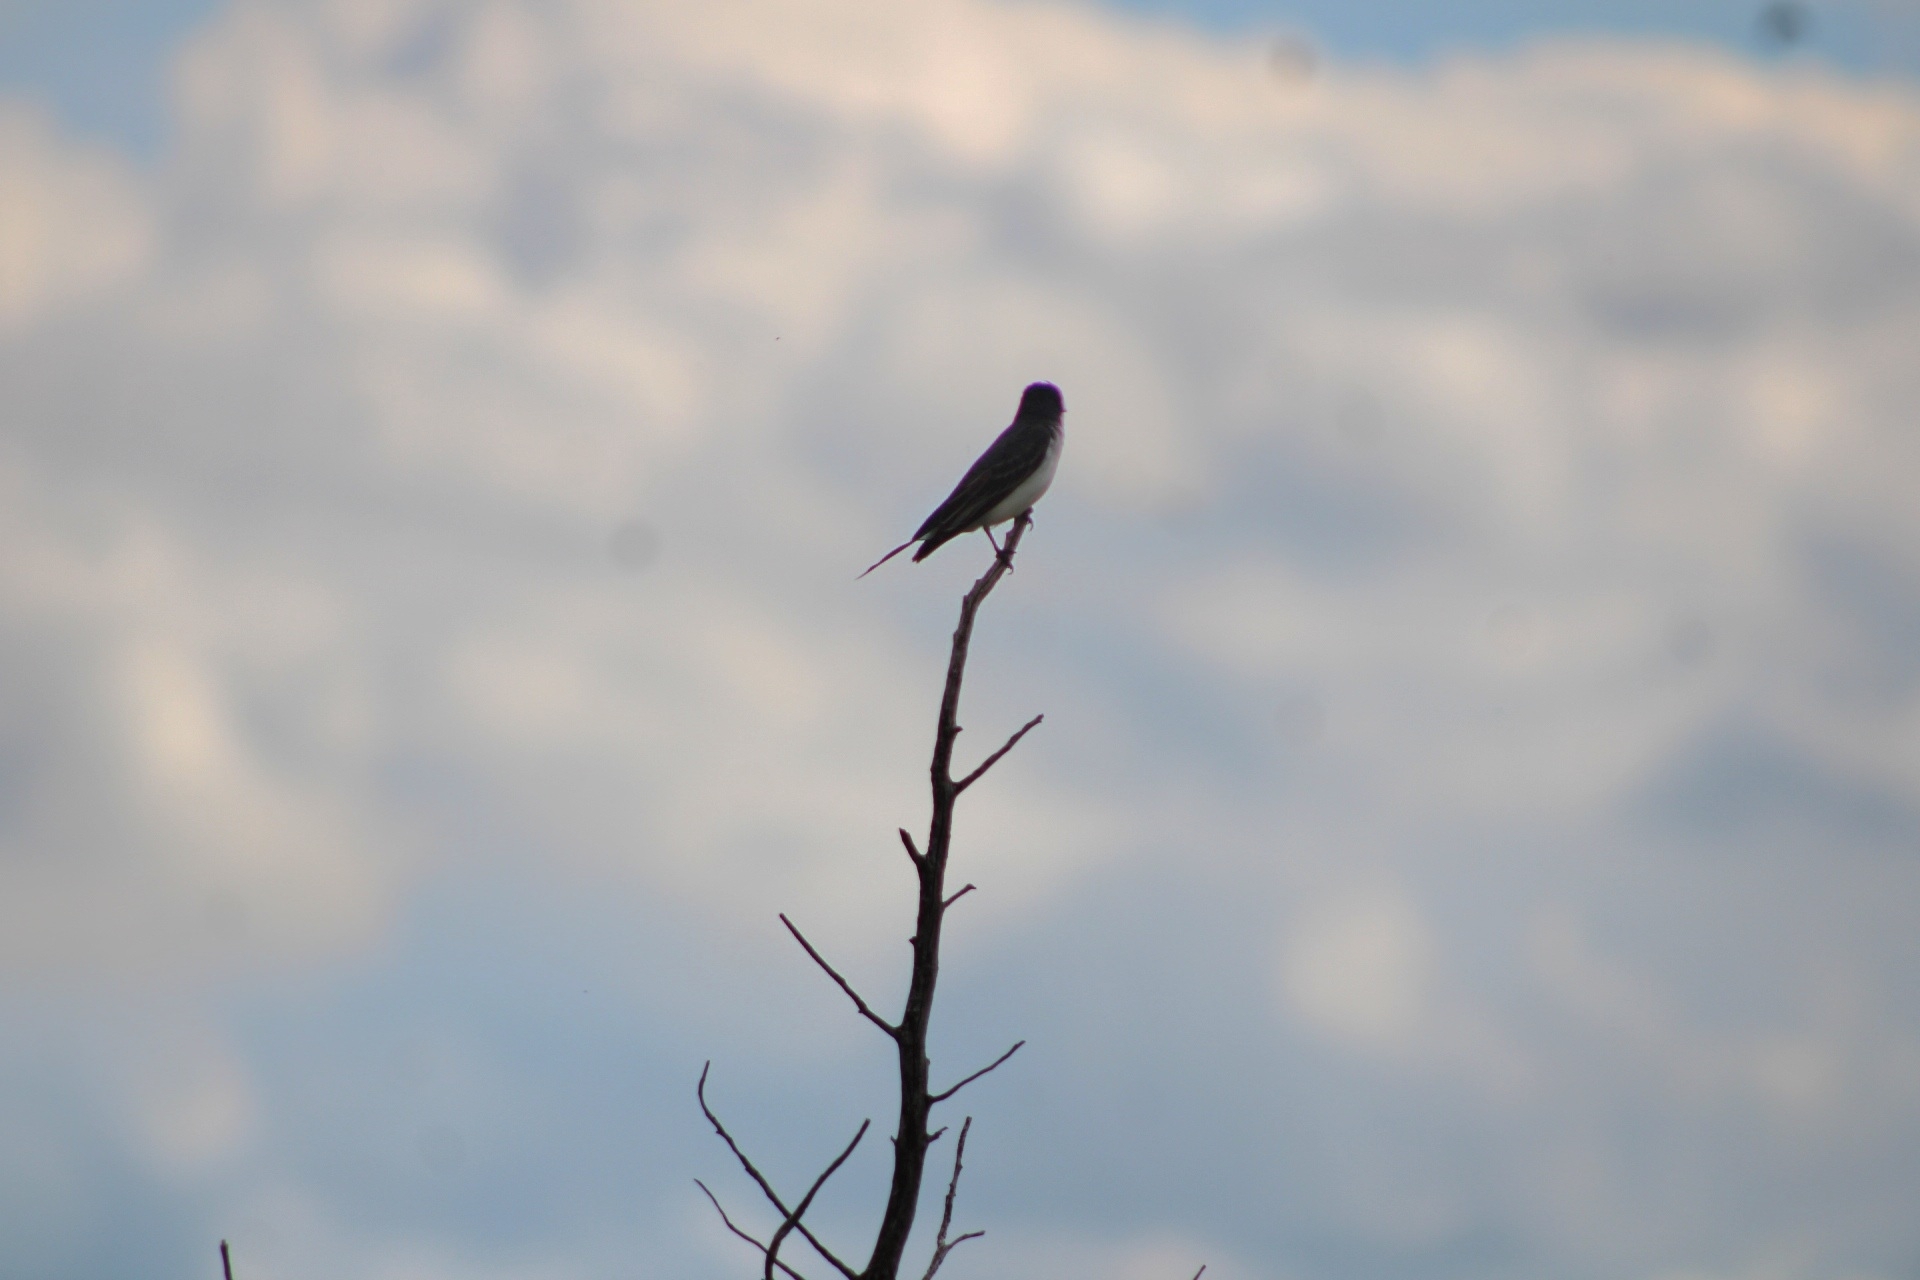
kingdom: Animalia
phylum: Chordata
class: Aves
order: Passeriformes
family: Tyrannidae
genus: Tyrannus
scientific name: Tyrannus tyrannus
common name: Eastern kingbird
